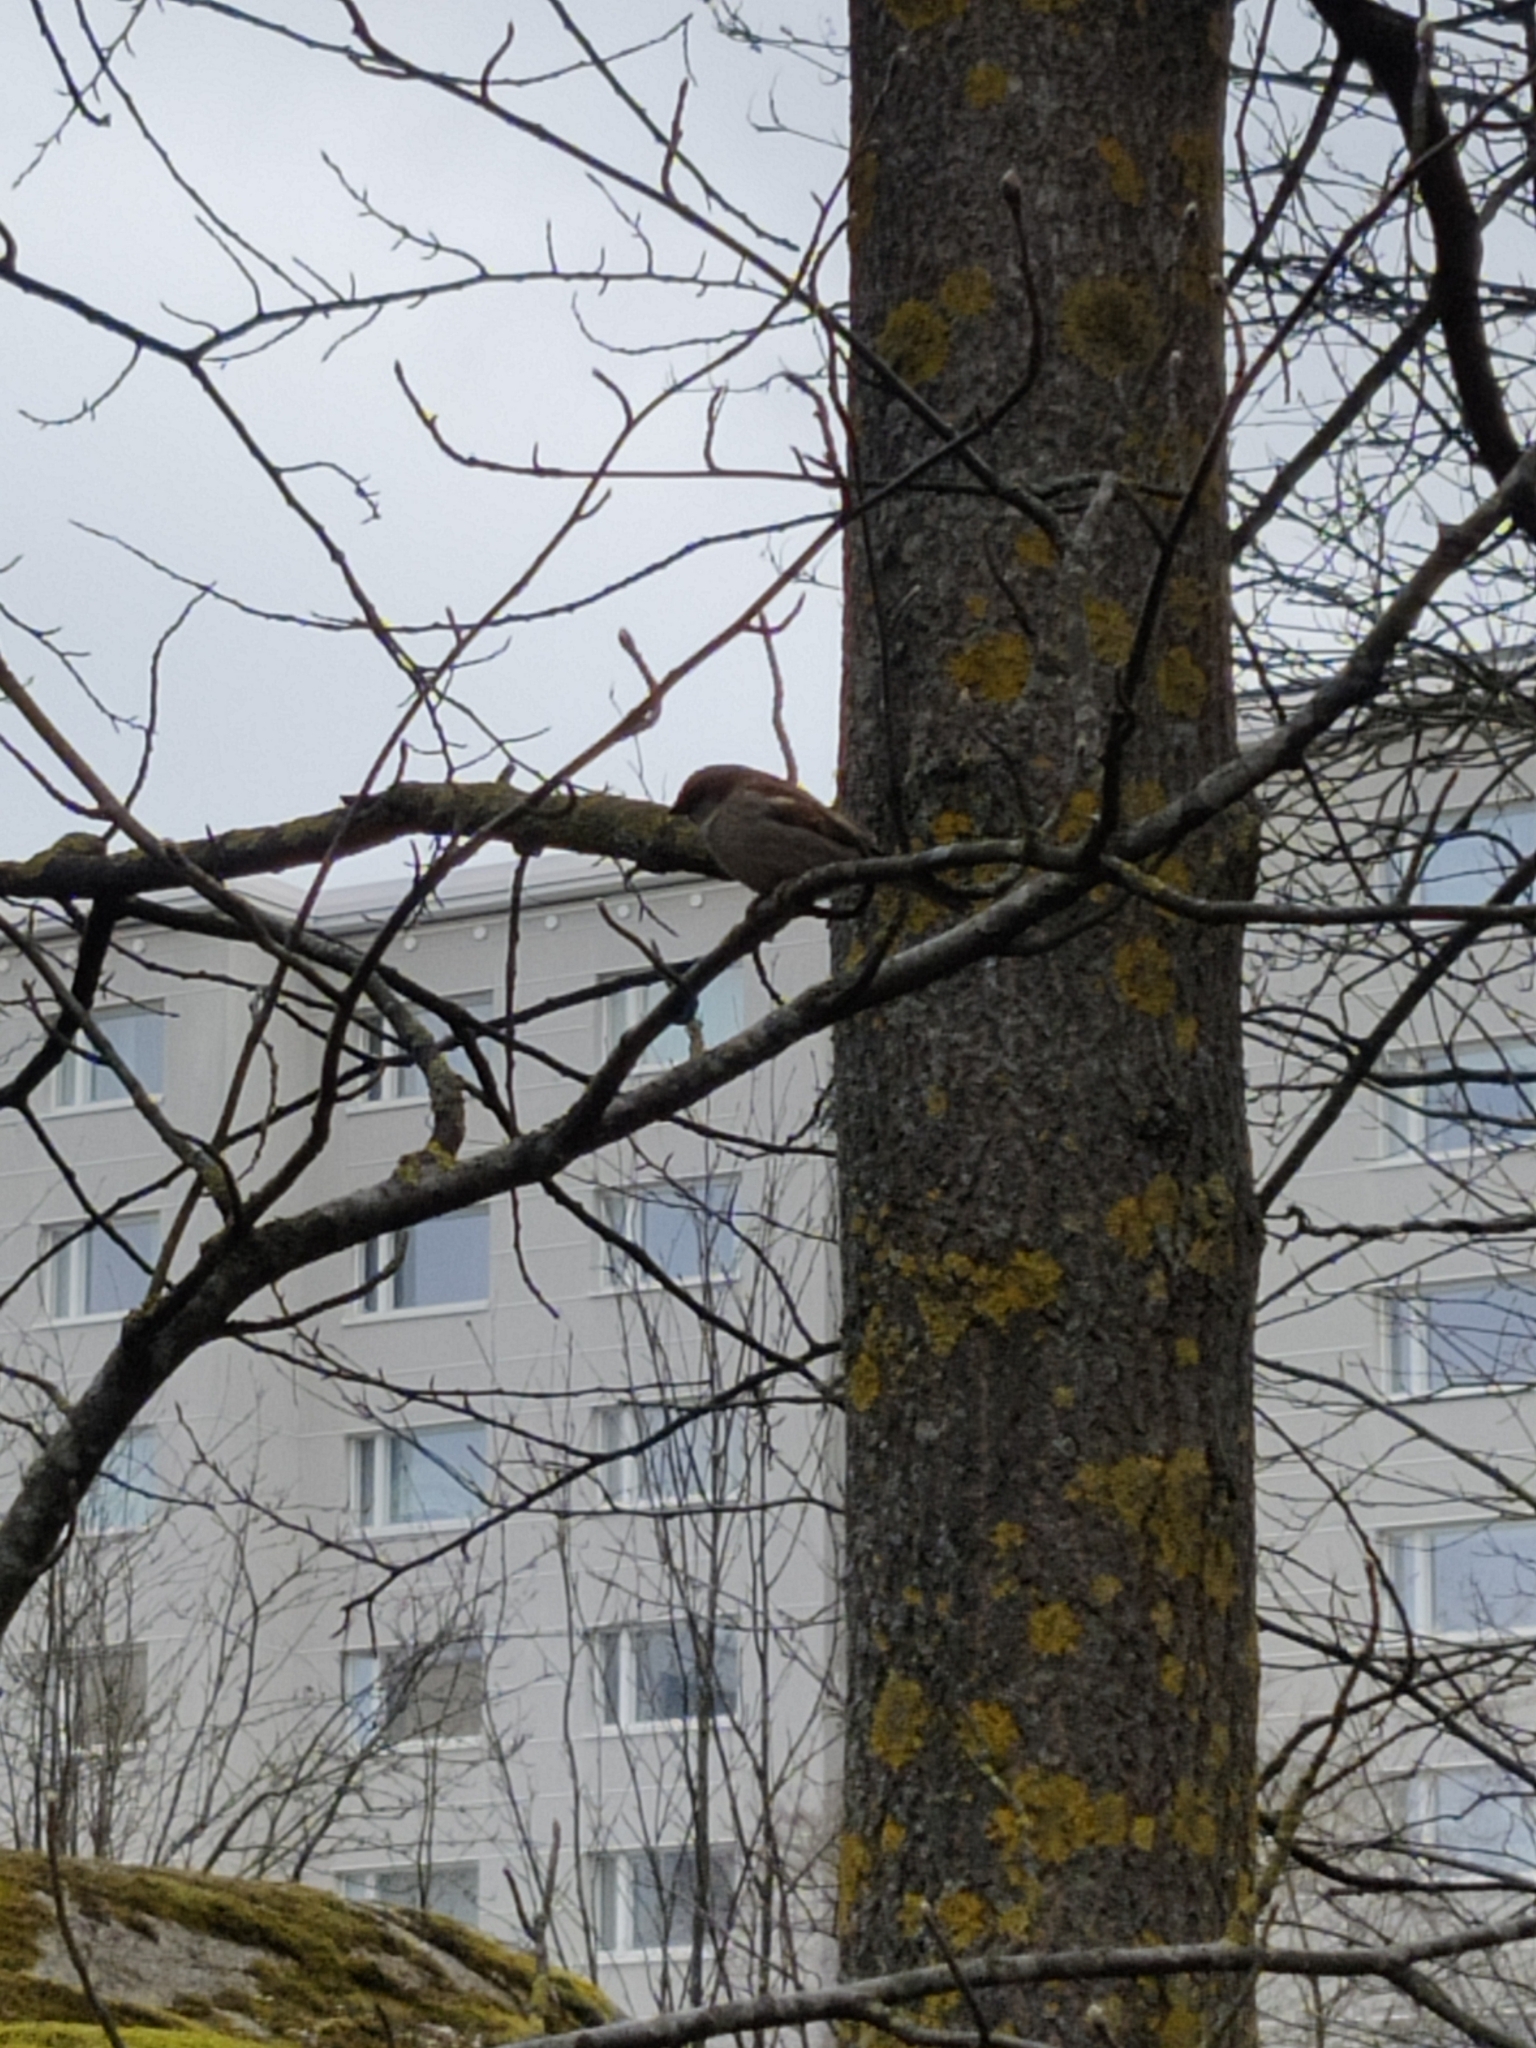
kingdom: Animalia
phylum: Chordata
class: Aves
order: Passeriformes
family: Passeridae
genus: Passer
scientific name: Passer domesticus
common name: House sparrow
